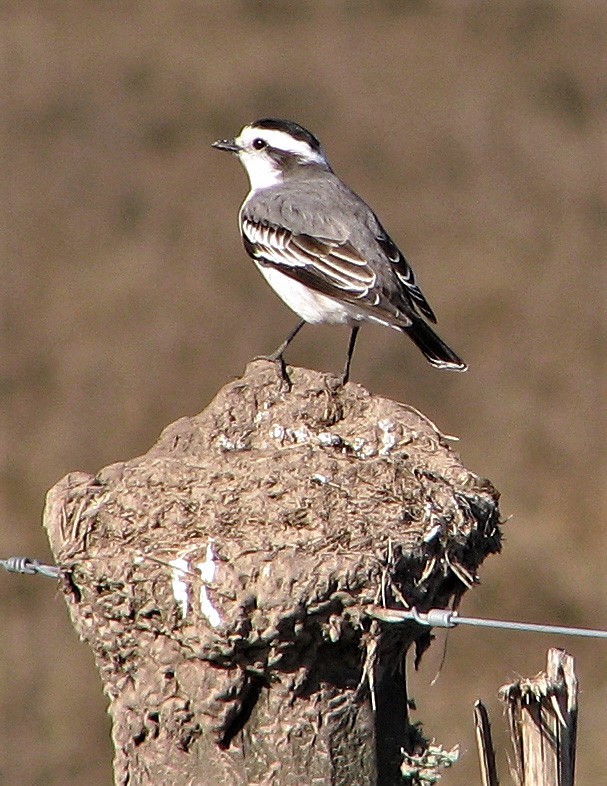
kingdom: Animalia
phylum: Chordata
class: Aves
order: Passeriformes
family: Tyrannidae
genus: Xolmis
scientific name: Xolmis coronatus
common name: Black-crowned monjita
